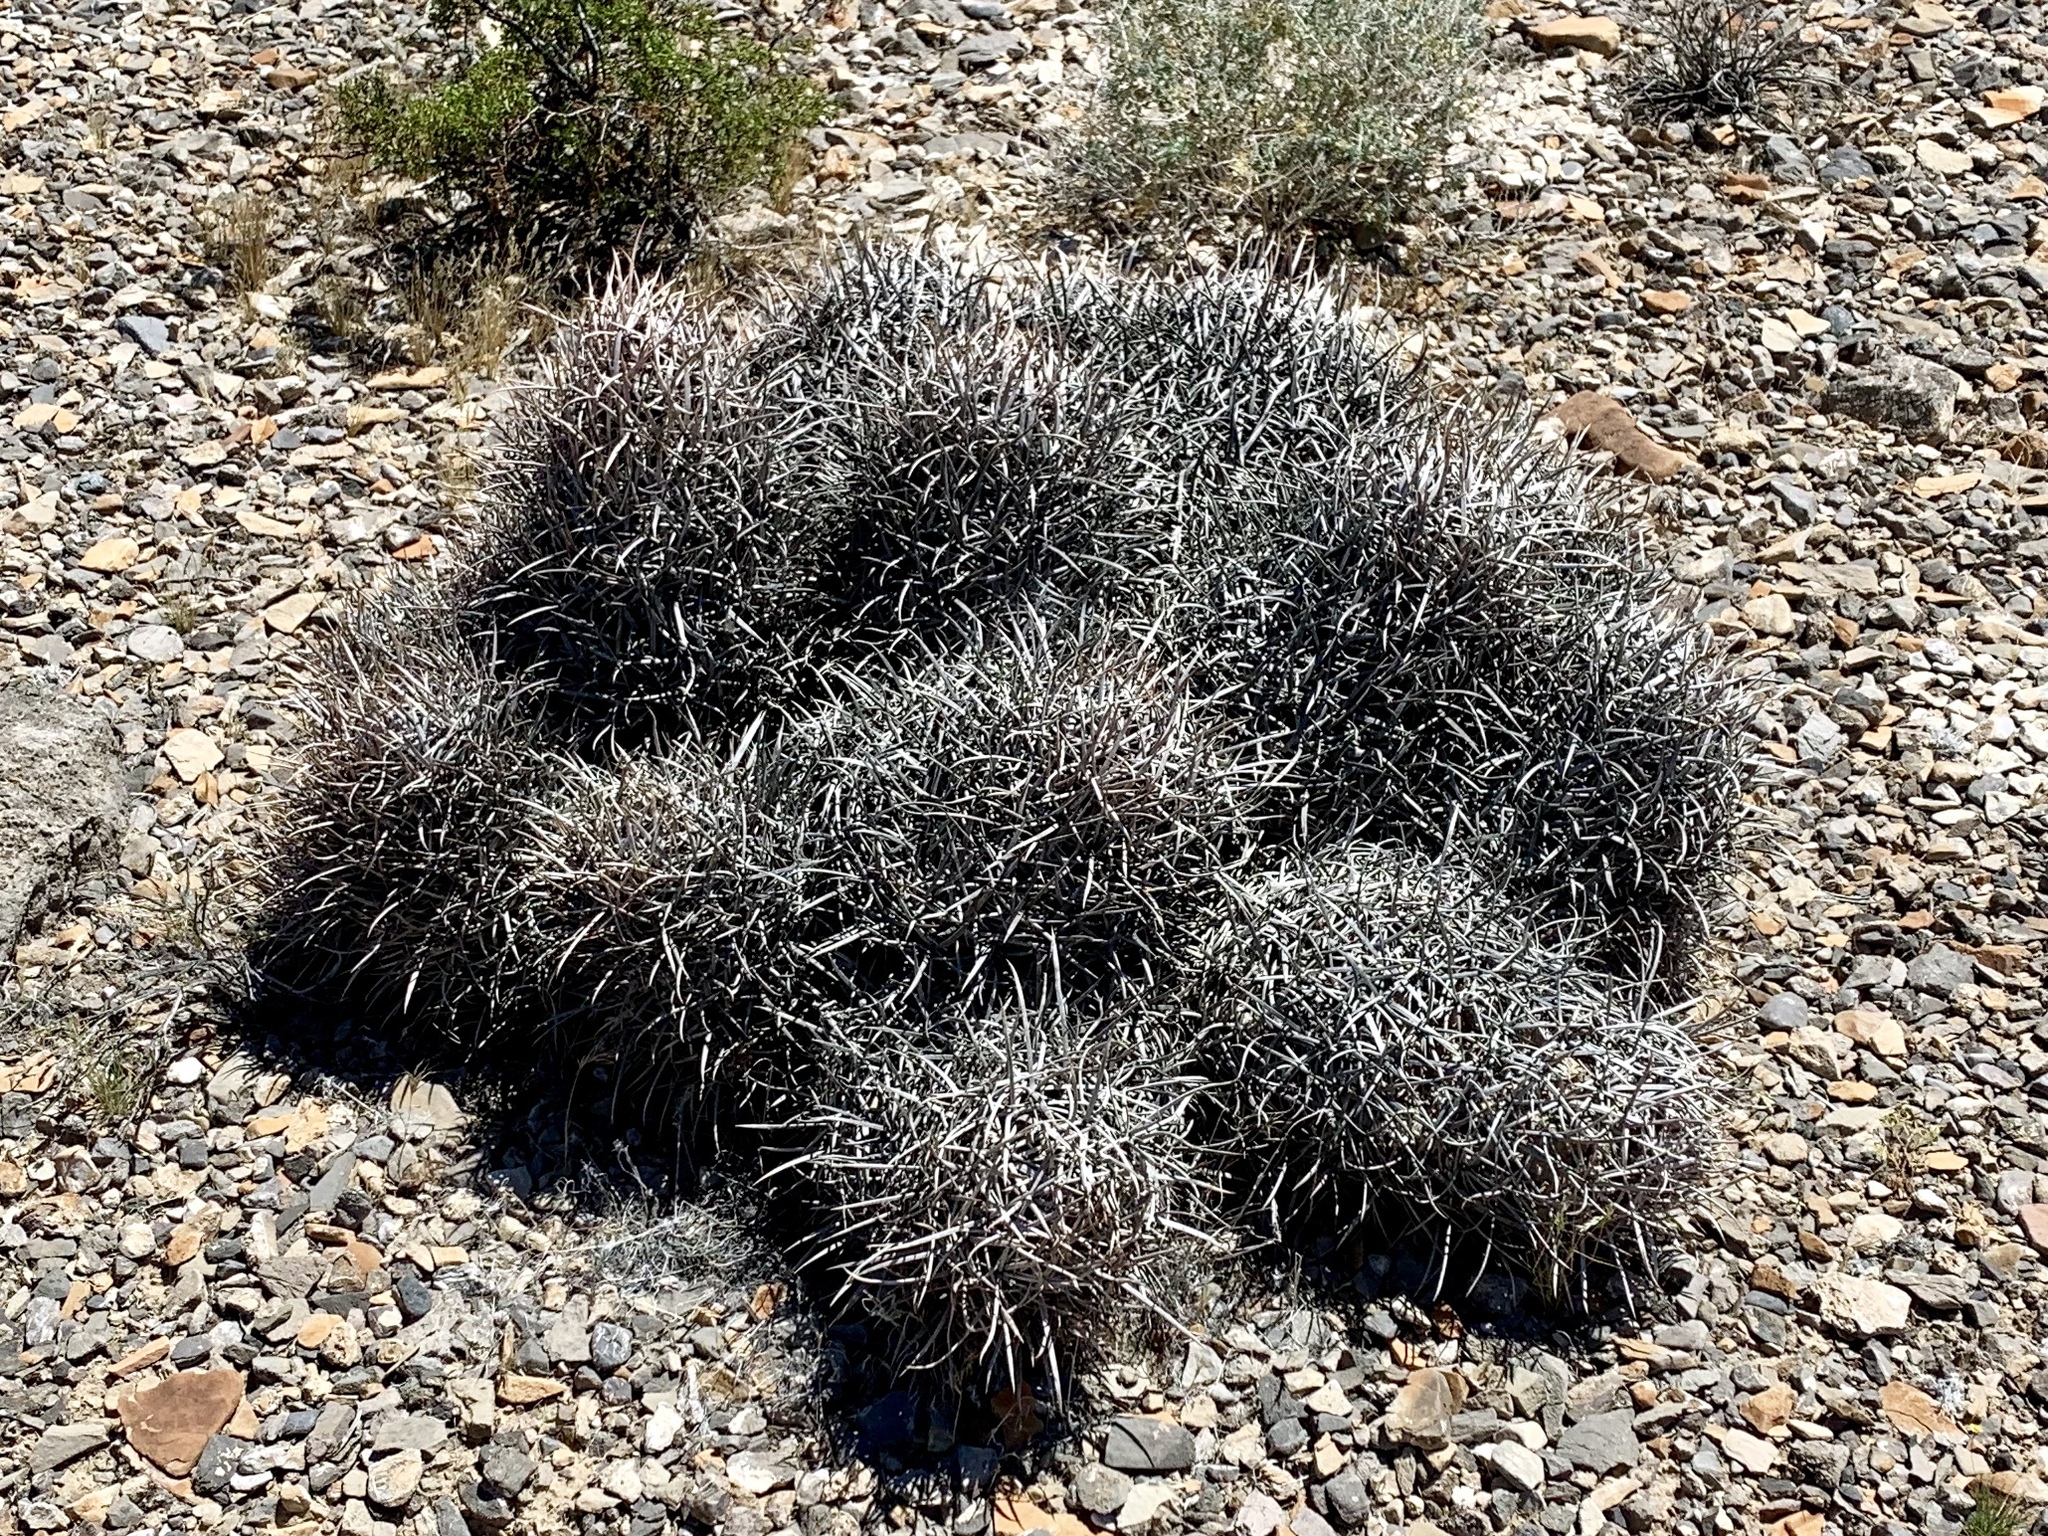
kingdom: Plantae
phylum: Tracheophyta
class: Magnoliopsida
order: Caryophyllales
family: Cactaceae
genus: Echinocactus
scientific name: Echinocactus polycephalus
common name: Cottontop cactus
